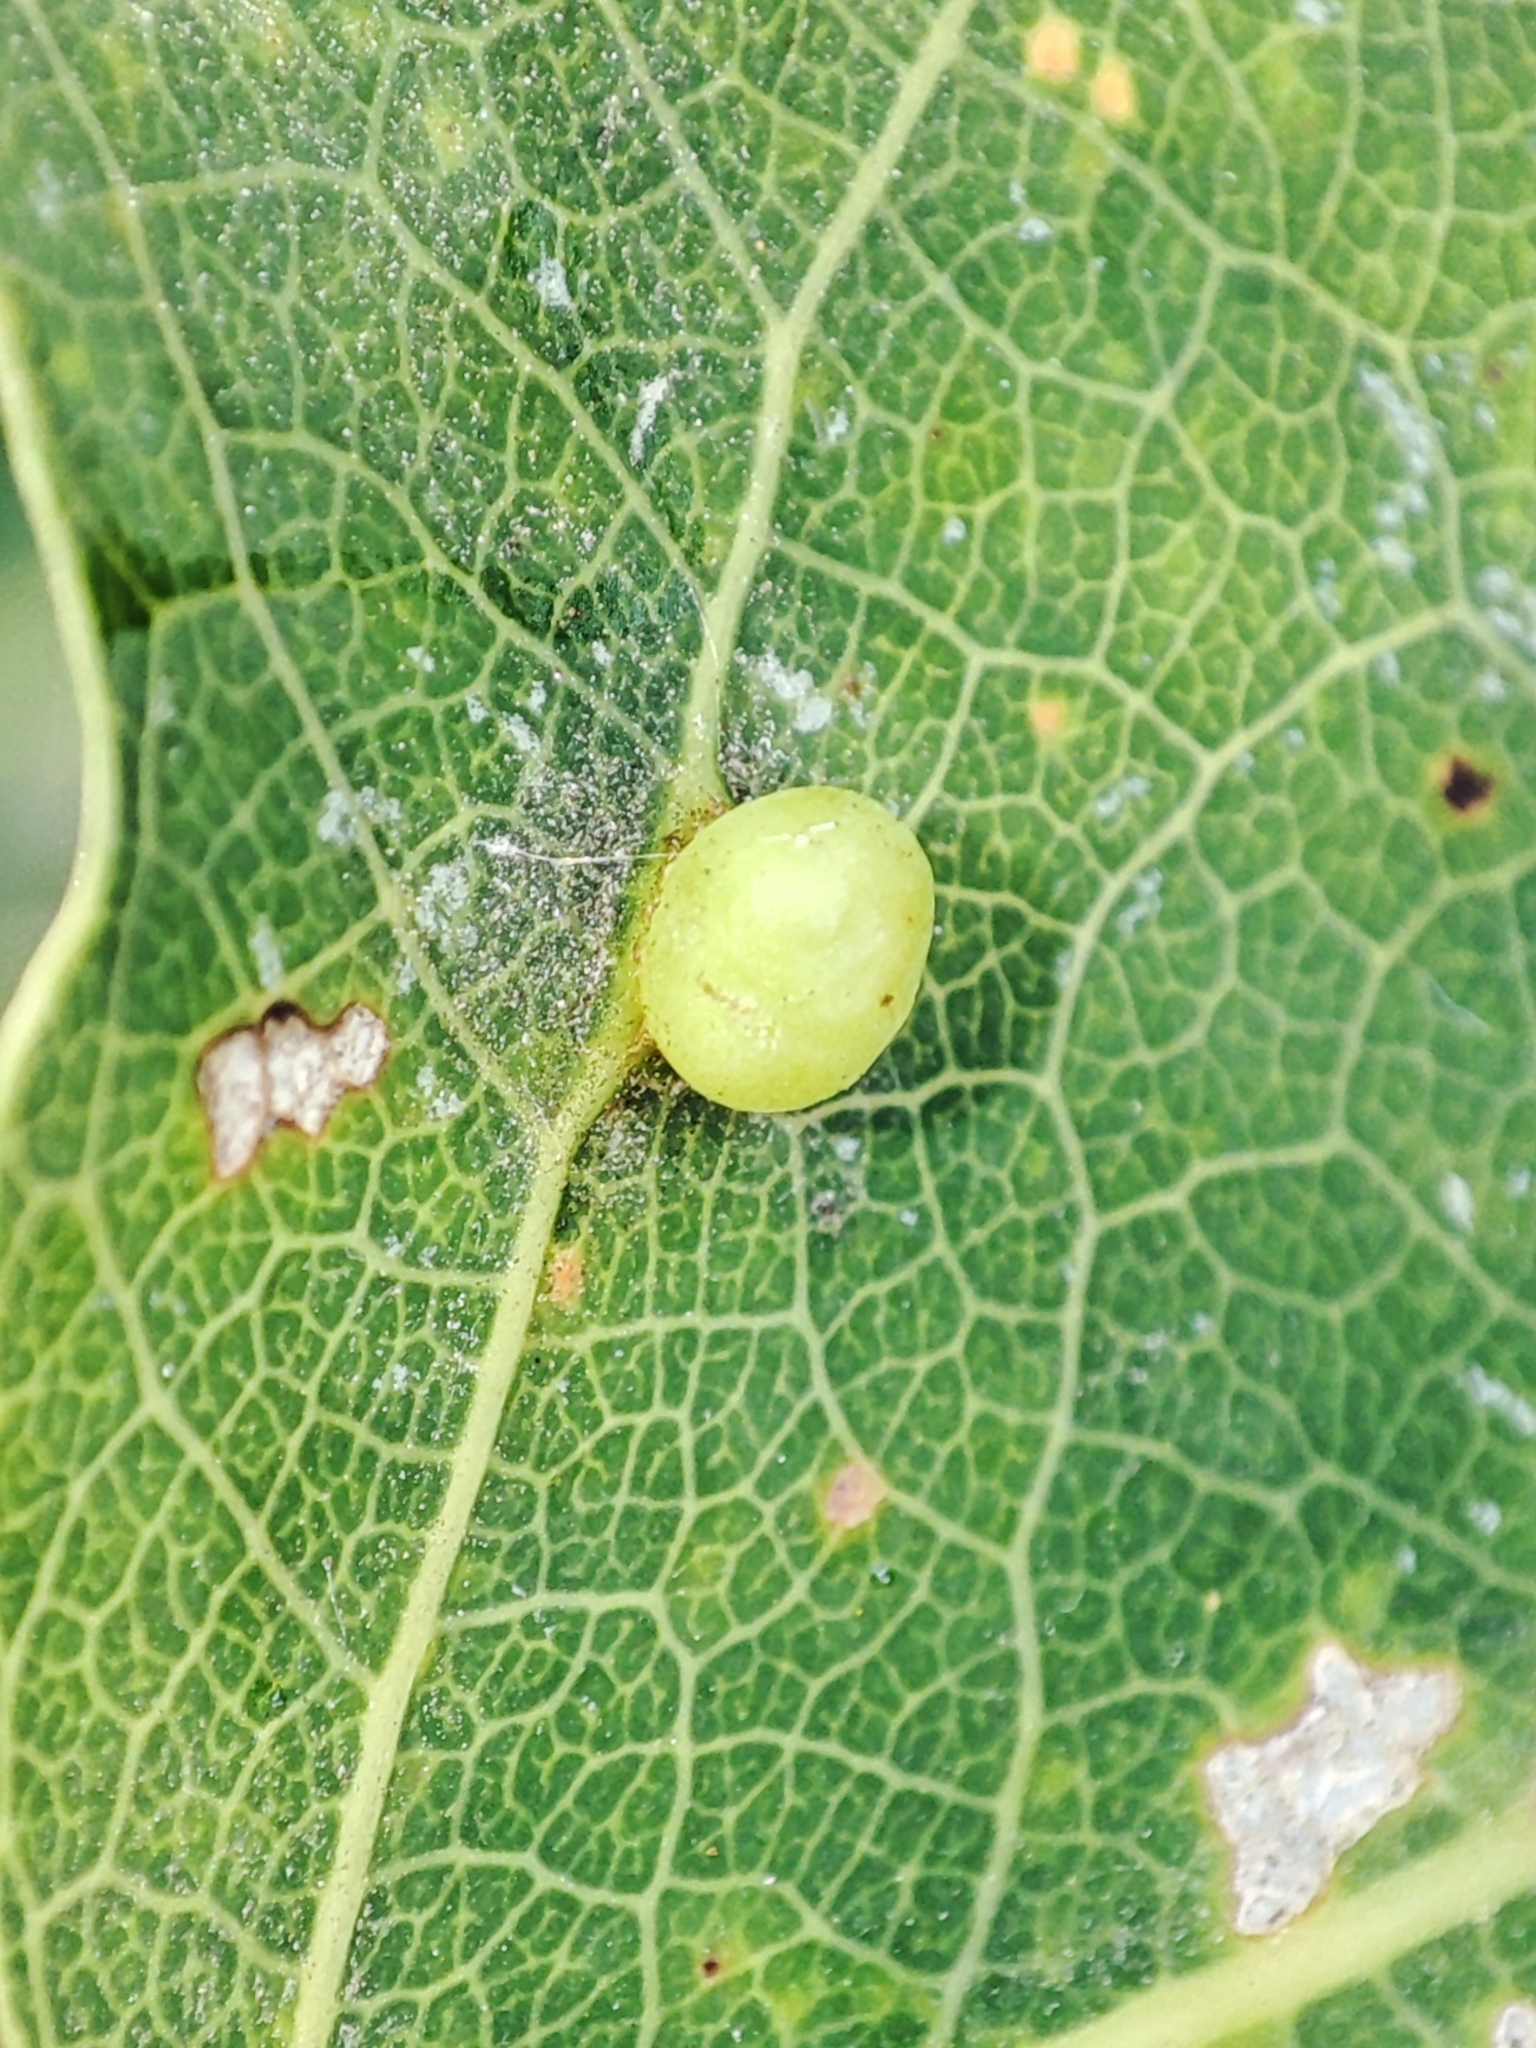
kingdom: Animalia
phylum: Arthropoda
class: Insecta
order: Diptera
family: Cecidomyiidae
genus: Harmandiola
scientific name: Harmandiola globuli
